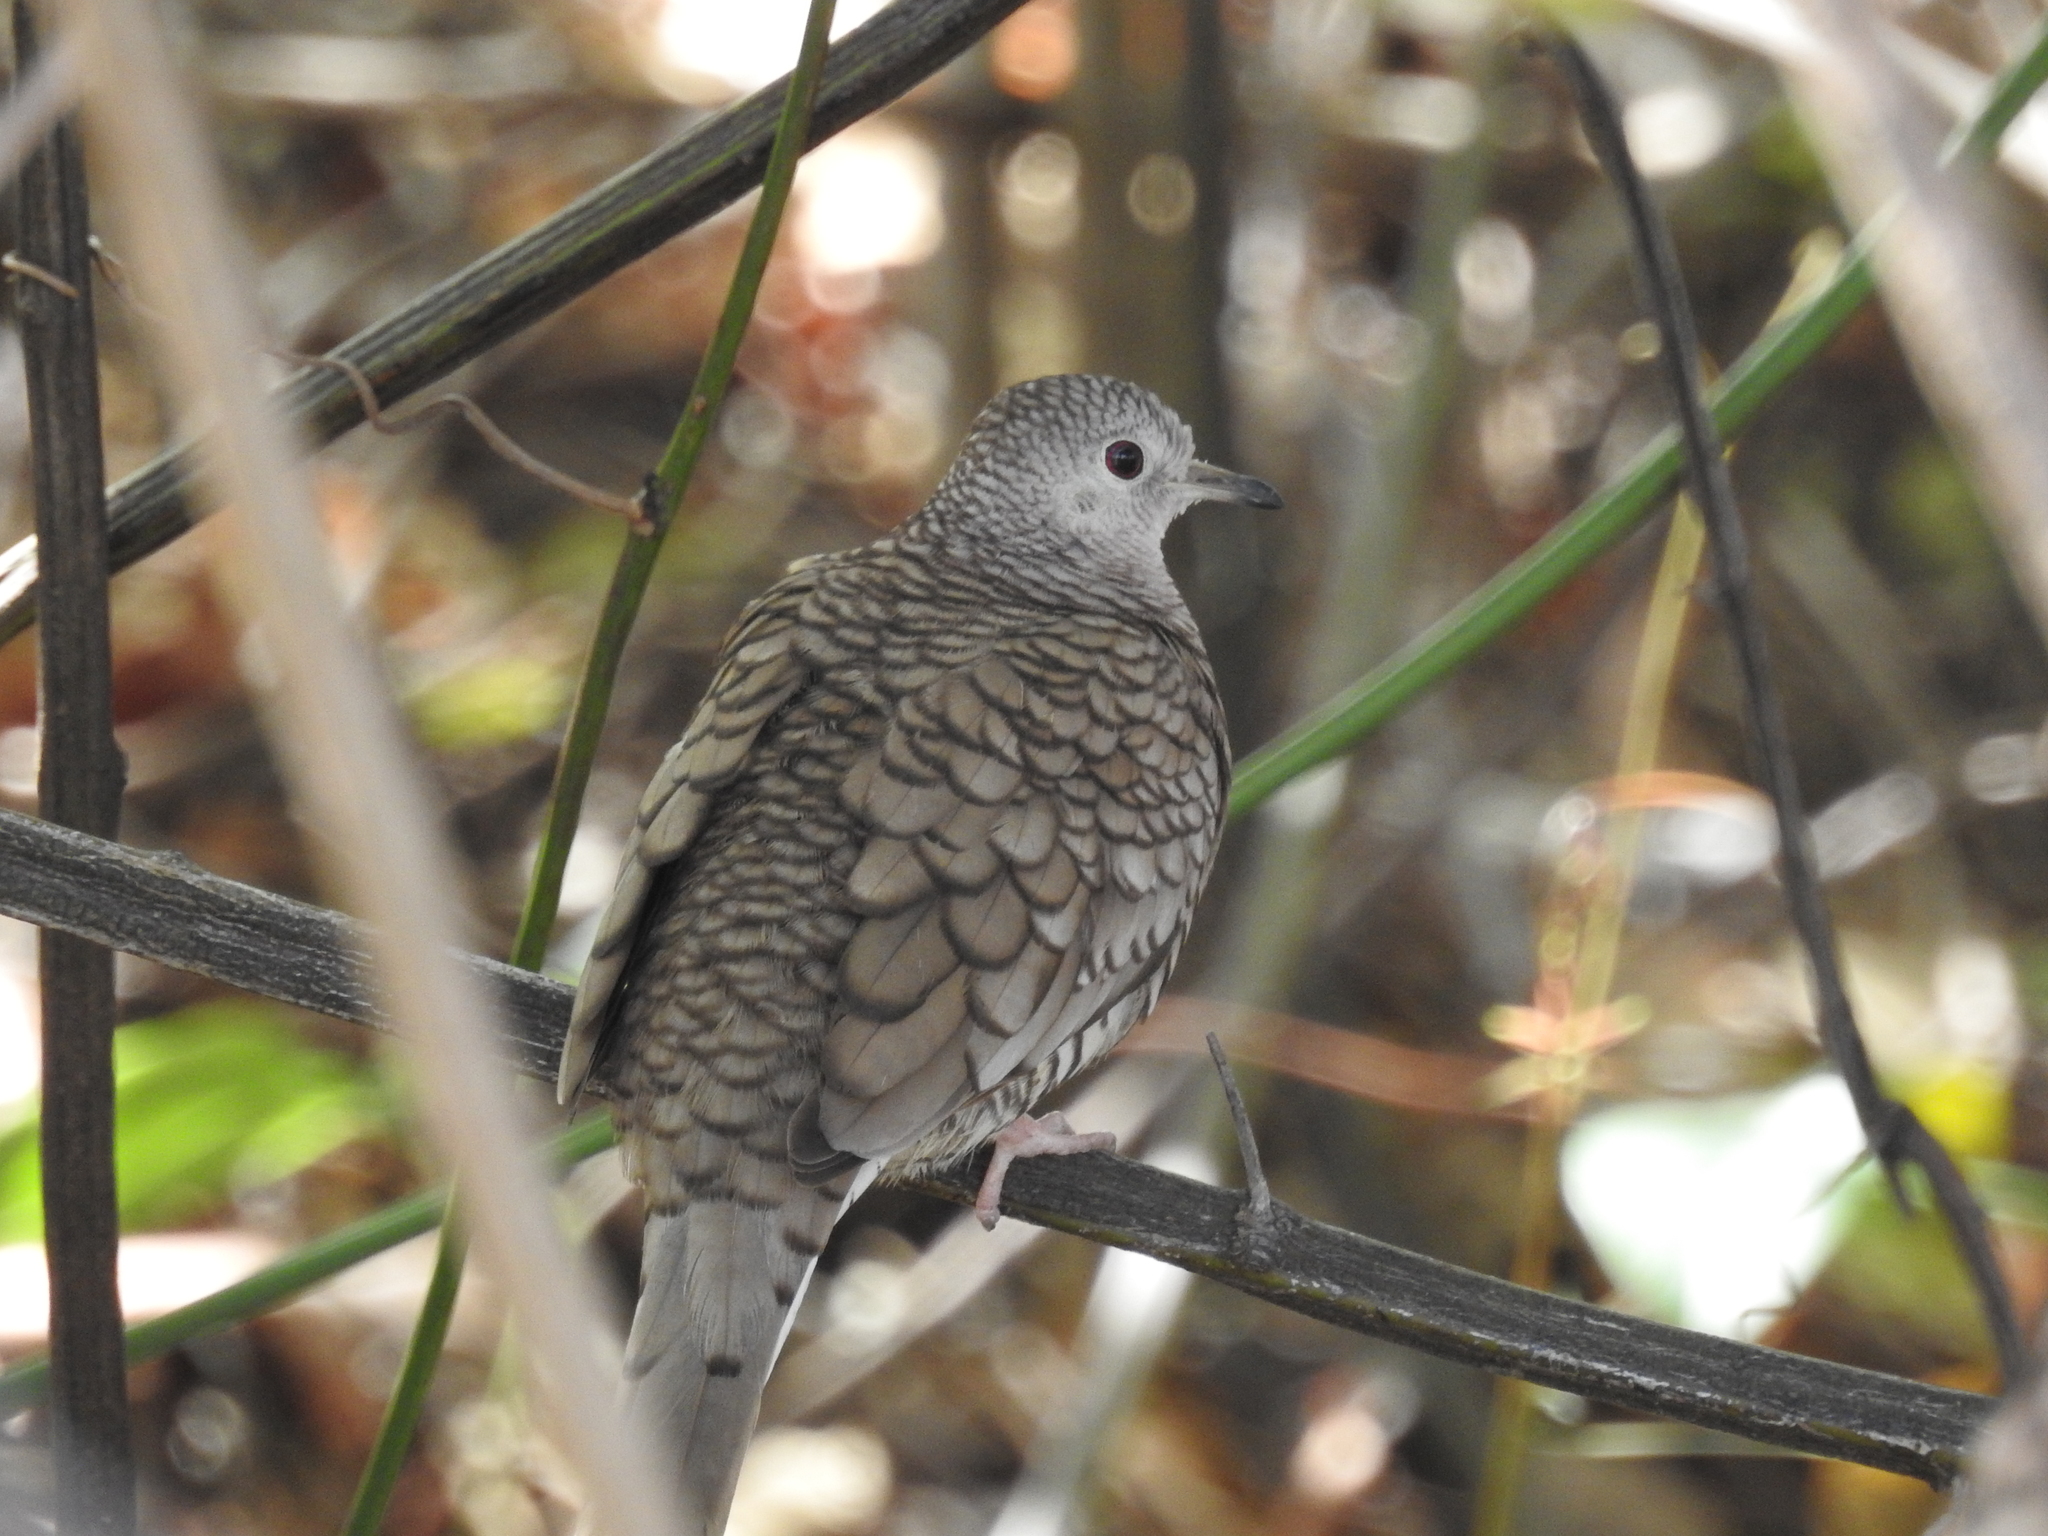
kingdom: Animalia
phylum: Chordata
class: Aves
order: Columbiformes
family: Columbidae
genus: Columbina
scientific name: Columbina inca
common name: Inca dove
